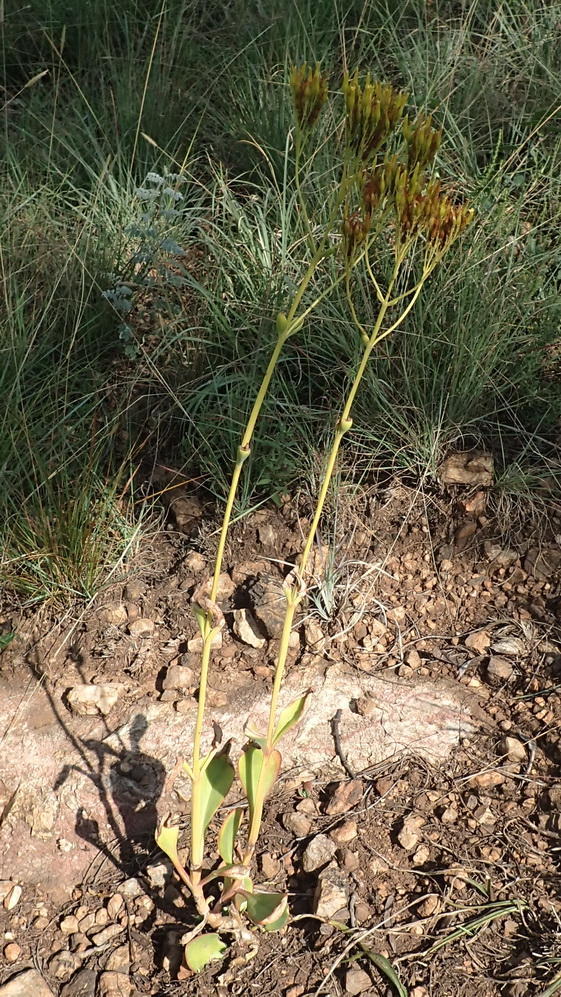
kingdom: Plantae
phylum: Tracheophyta
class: Magnoliopsida
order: Saxifragales
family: Crassulaceae
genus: Kalanchoe
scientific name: Kalanchoe paniculata
